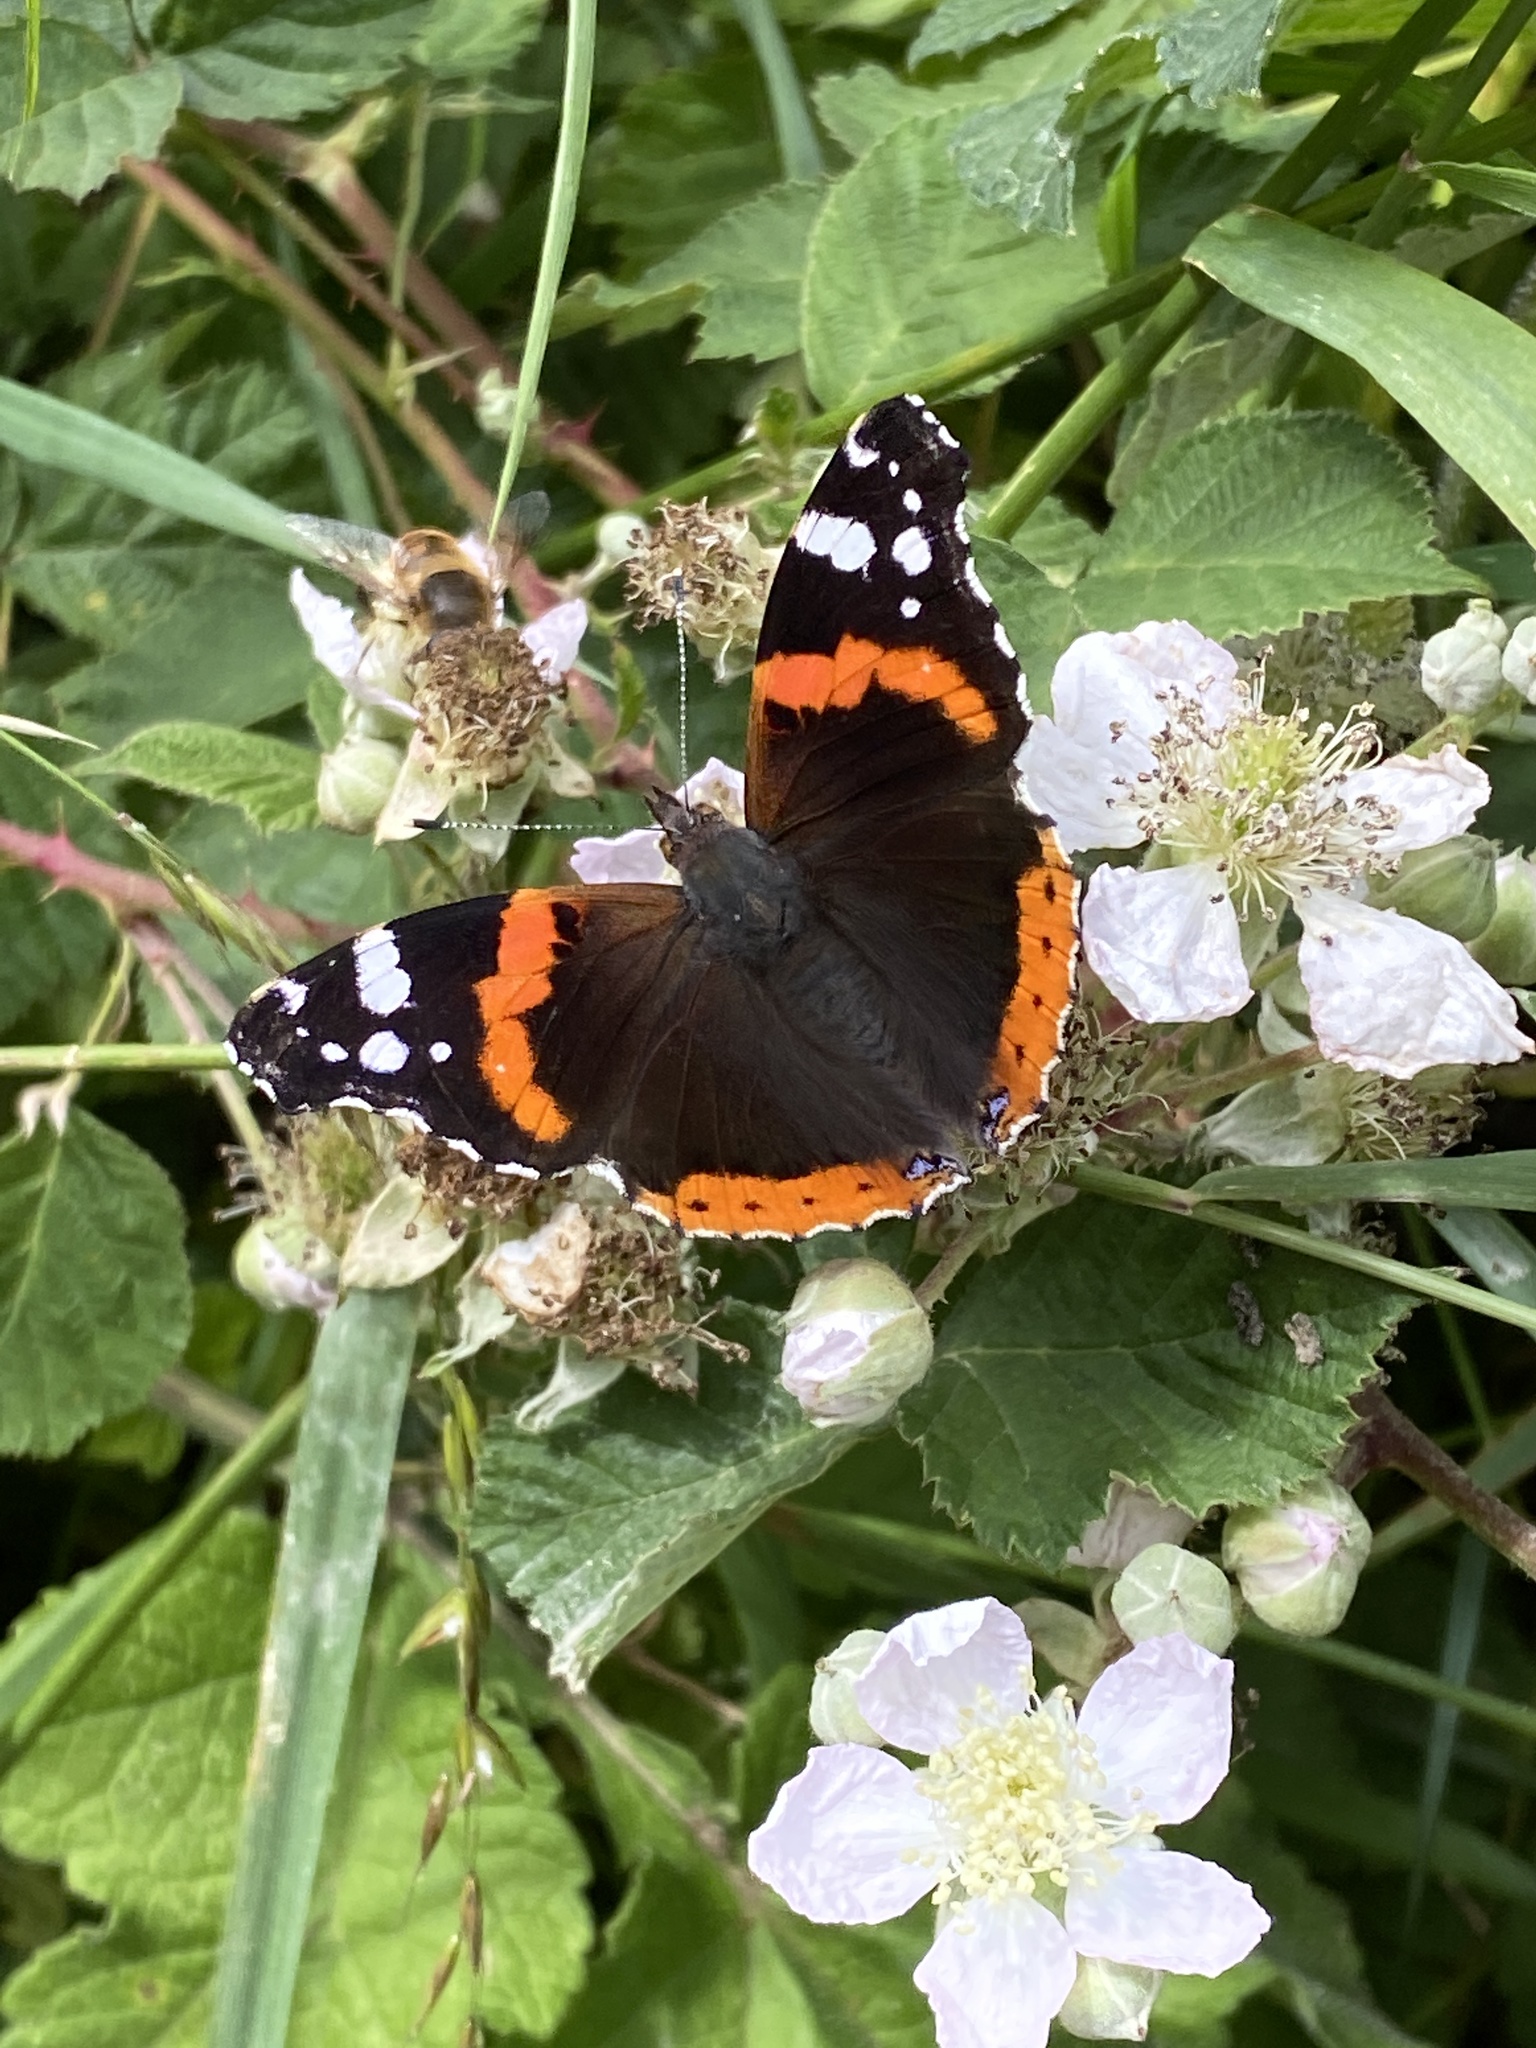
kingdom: Animalia
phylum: Arthropoda
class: Insecta
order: Lepidoptera
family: Nymphalidae
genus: Vanessa
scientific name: Vanessa atalanta
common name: Red admiral
